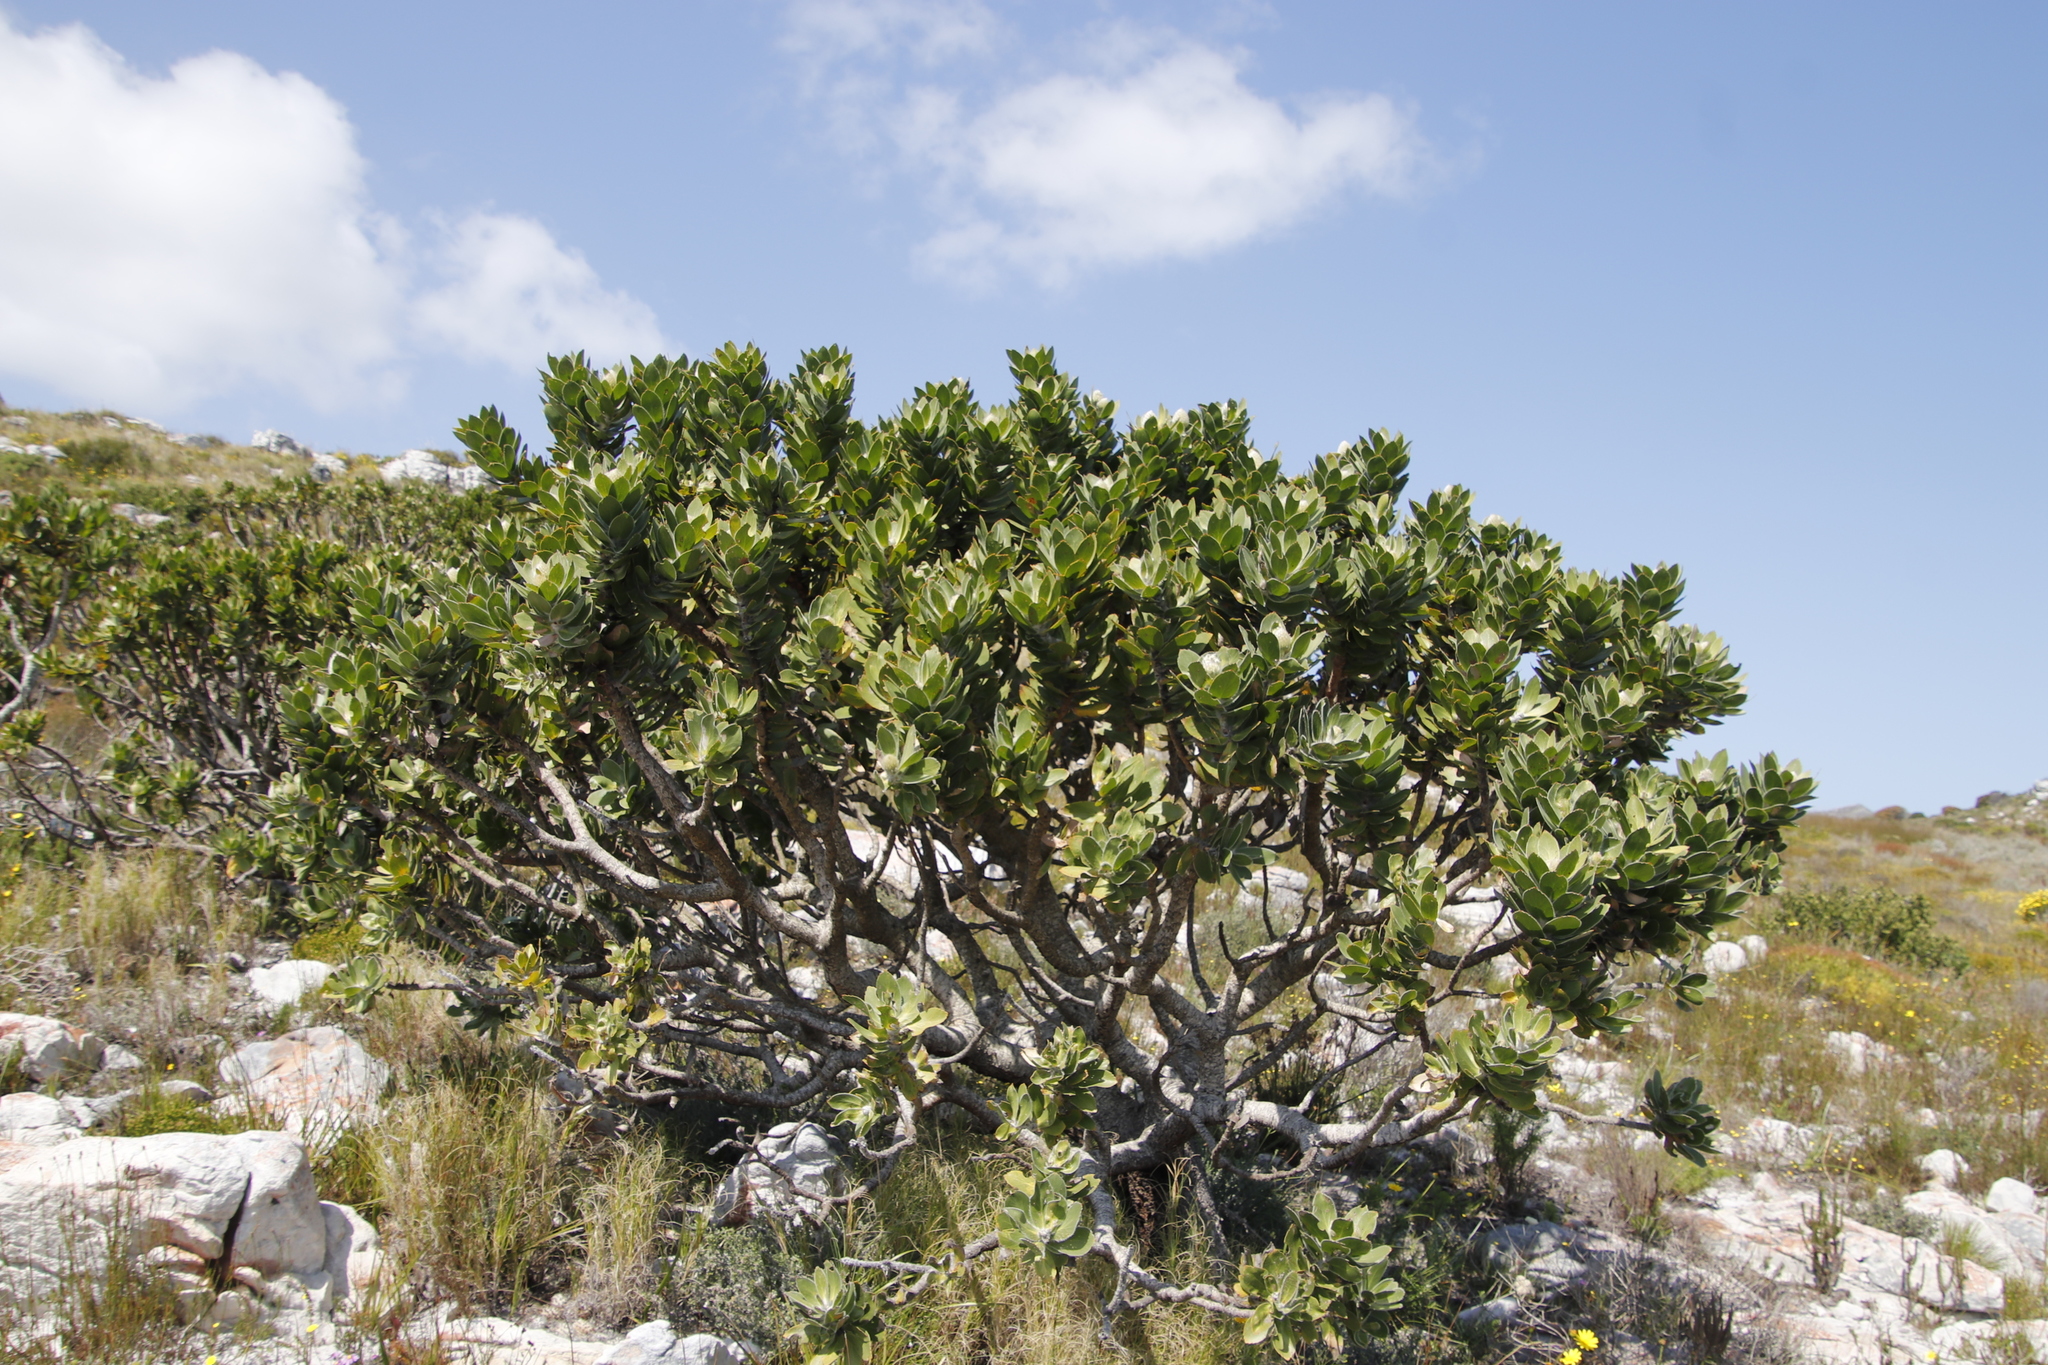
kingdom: Plantae
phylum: Tracheophyta
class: Magnoliopsida
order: Proteales
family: Proteaceae
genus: Leucospermum
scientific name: Leucospermum conocarpodendron
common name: Tree pincushion
